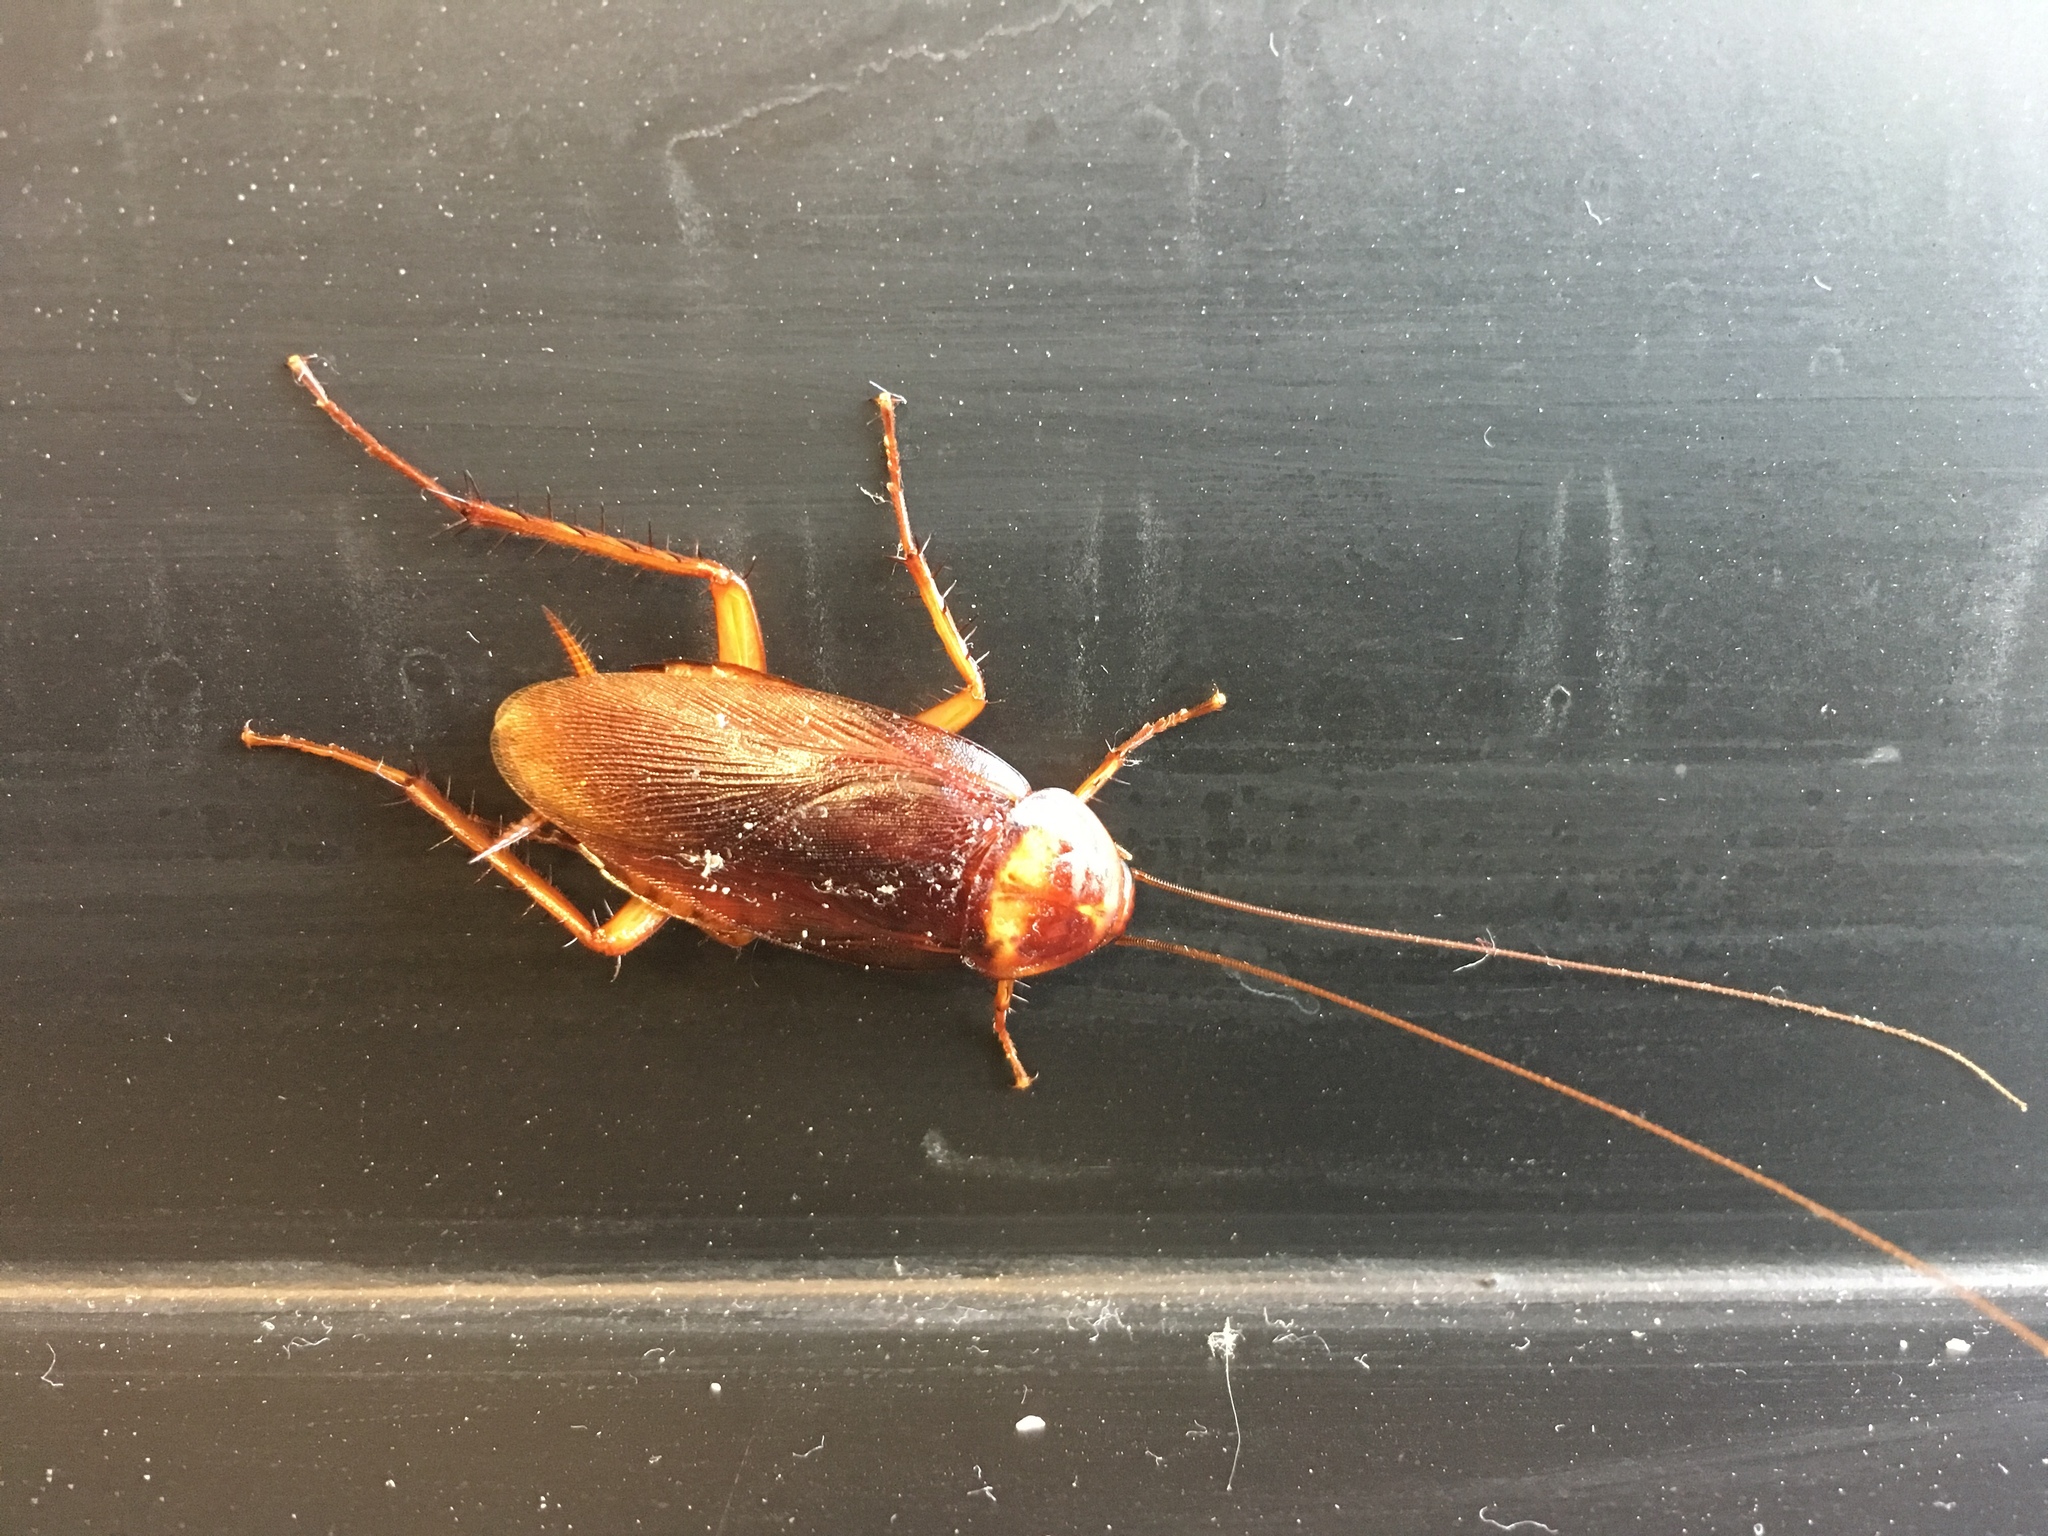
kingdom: Animalia
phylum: Arthropoda
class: Insecta
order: Blattodea
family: Blattidae
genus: Periplaneta
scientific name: Periplaneta americana
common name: American cockroach
